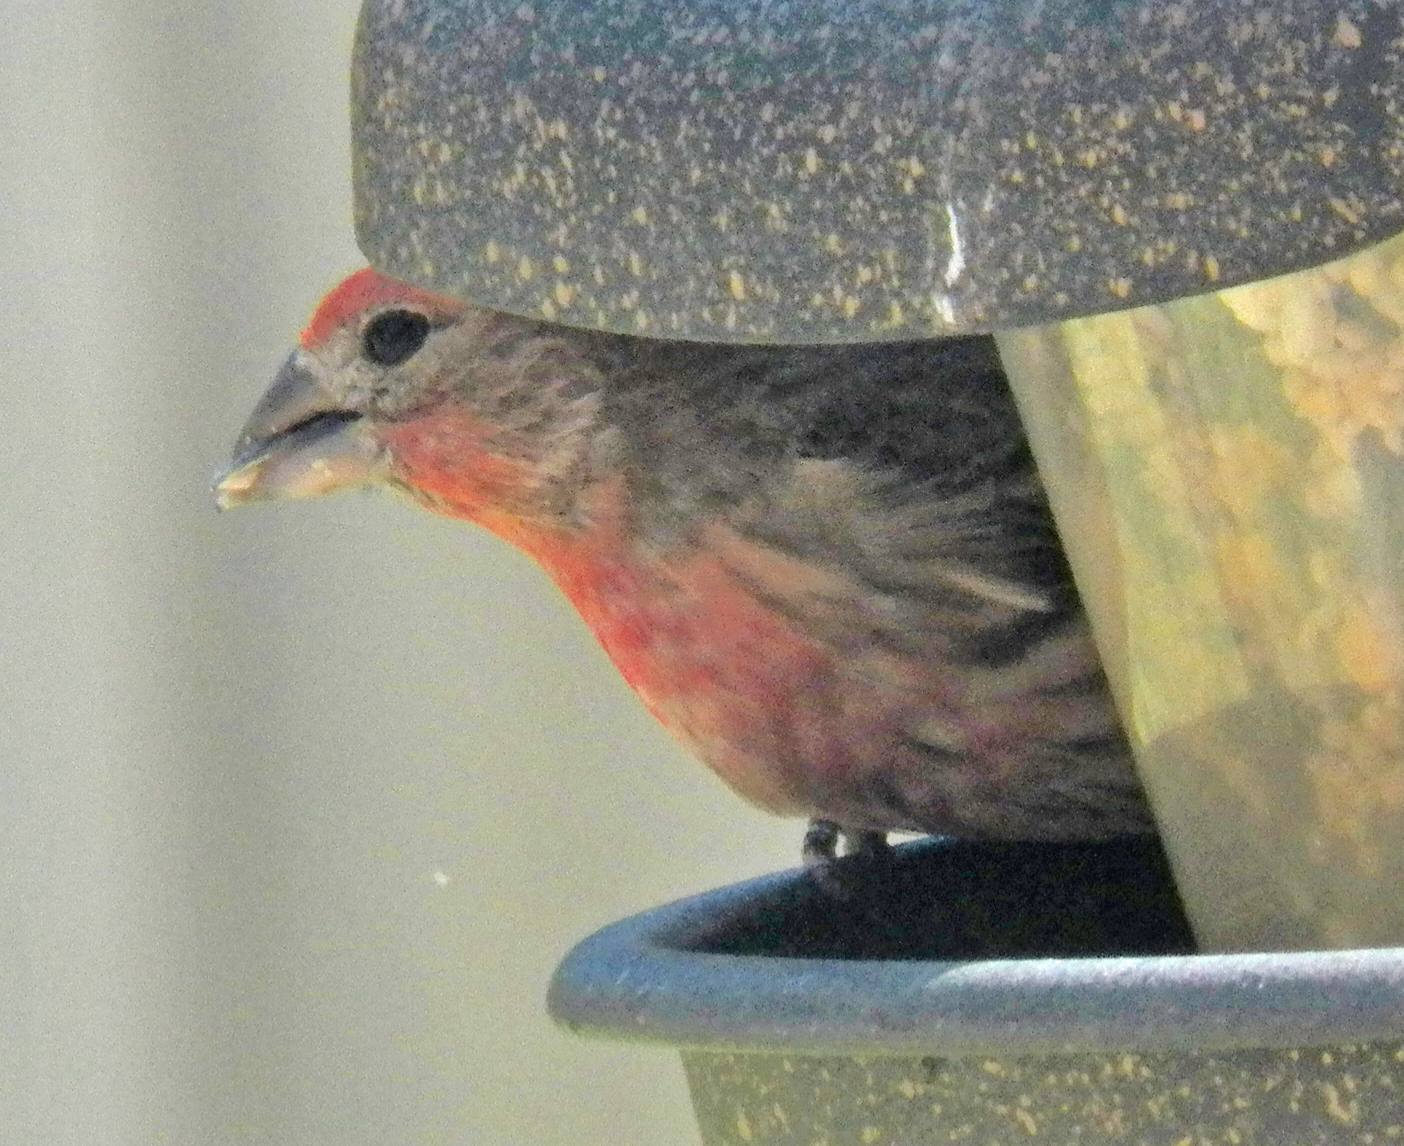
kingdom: Animalia
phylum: Chordata
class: Aves
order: Passeriformes
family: Fringillidae
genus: Haemorhous
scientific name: Haemorhous mexicanus
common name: House finch
